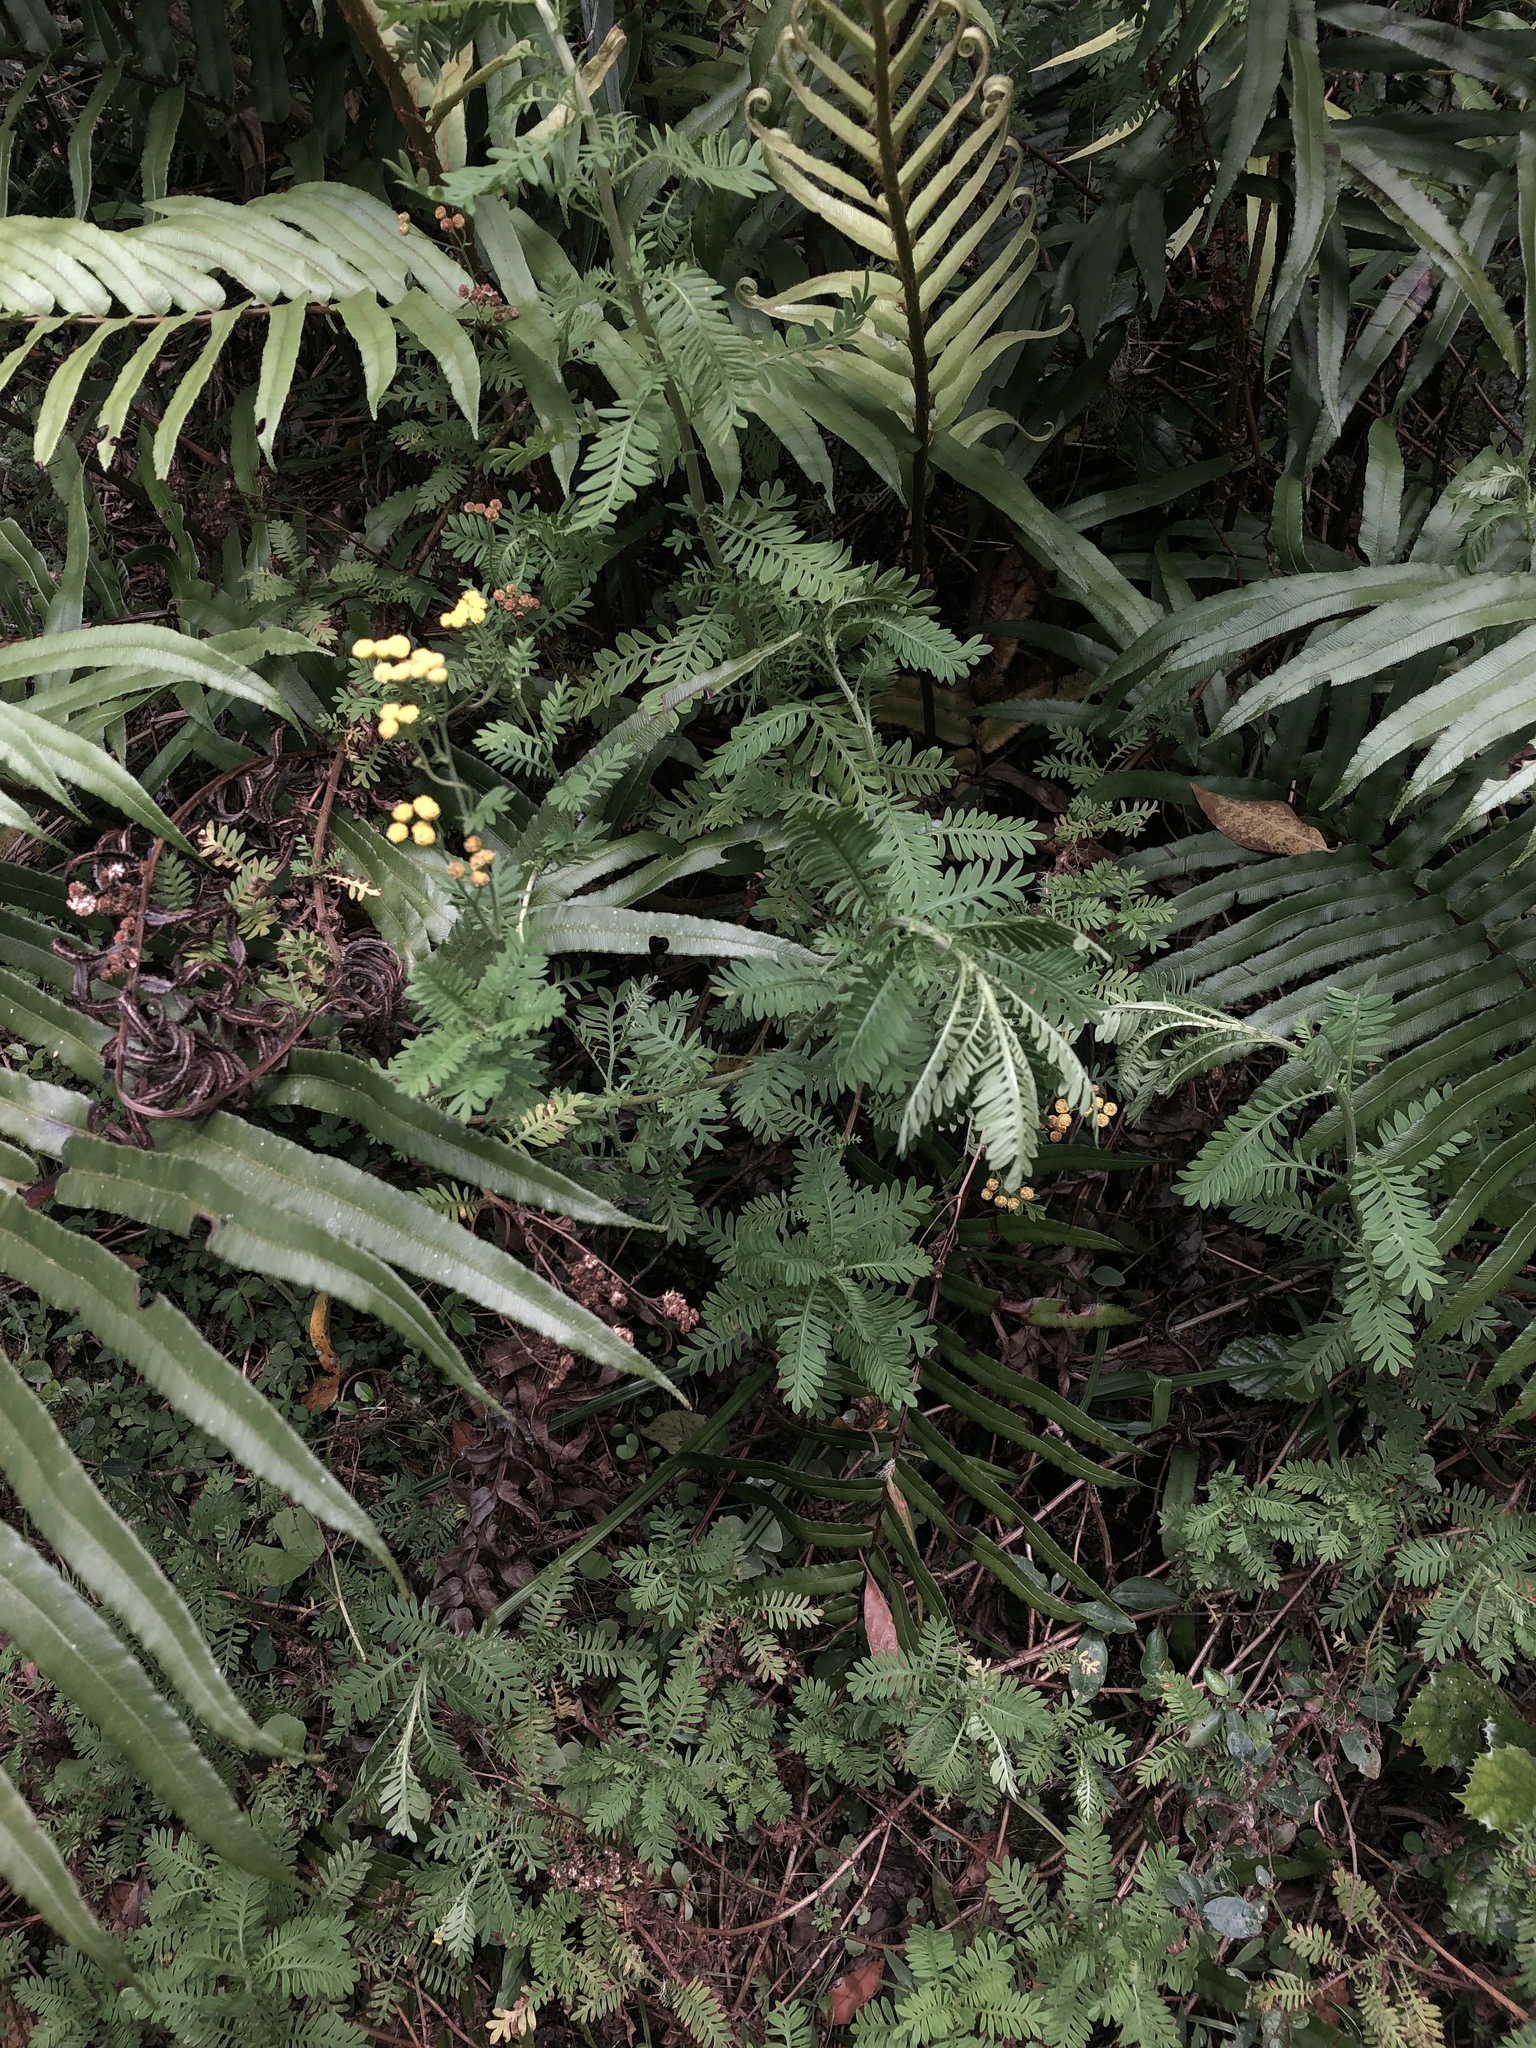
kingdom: Plantae
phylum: Tracheophyta
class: Magnoliopsida
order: Asterales
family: Asteraceae
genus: Hippia
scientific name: Hippia frutescens
